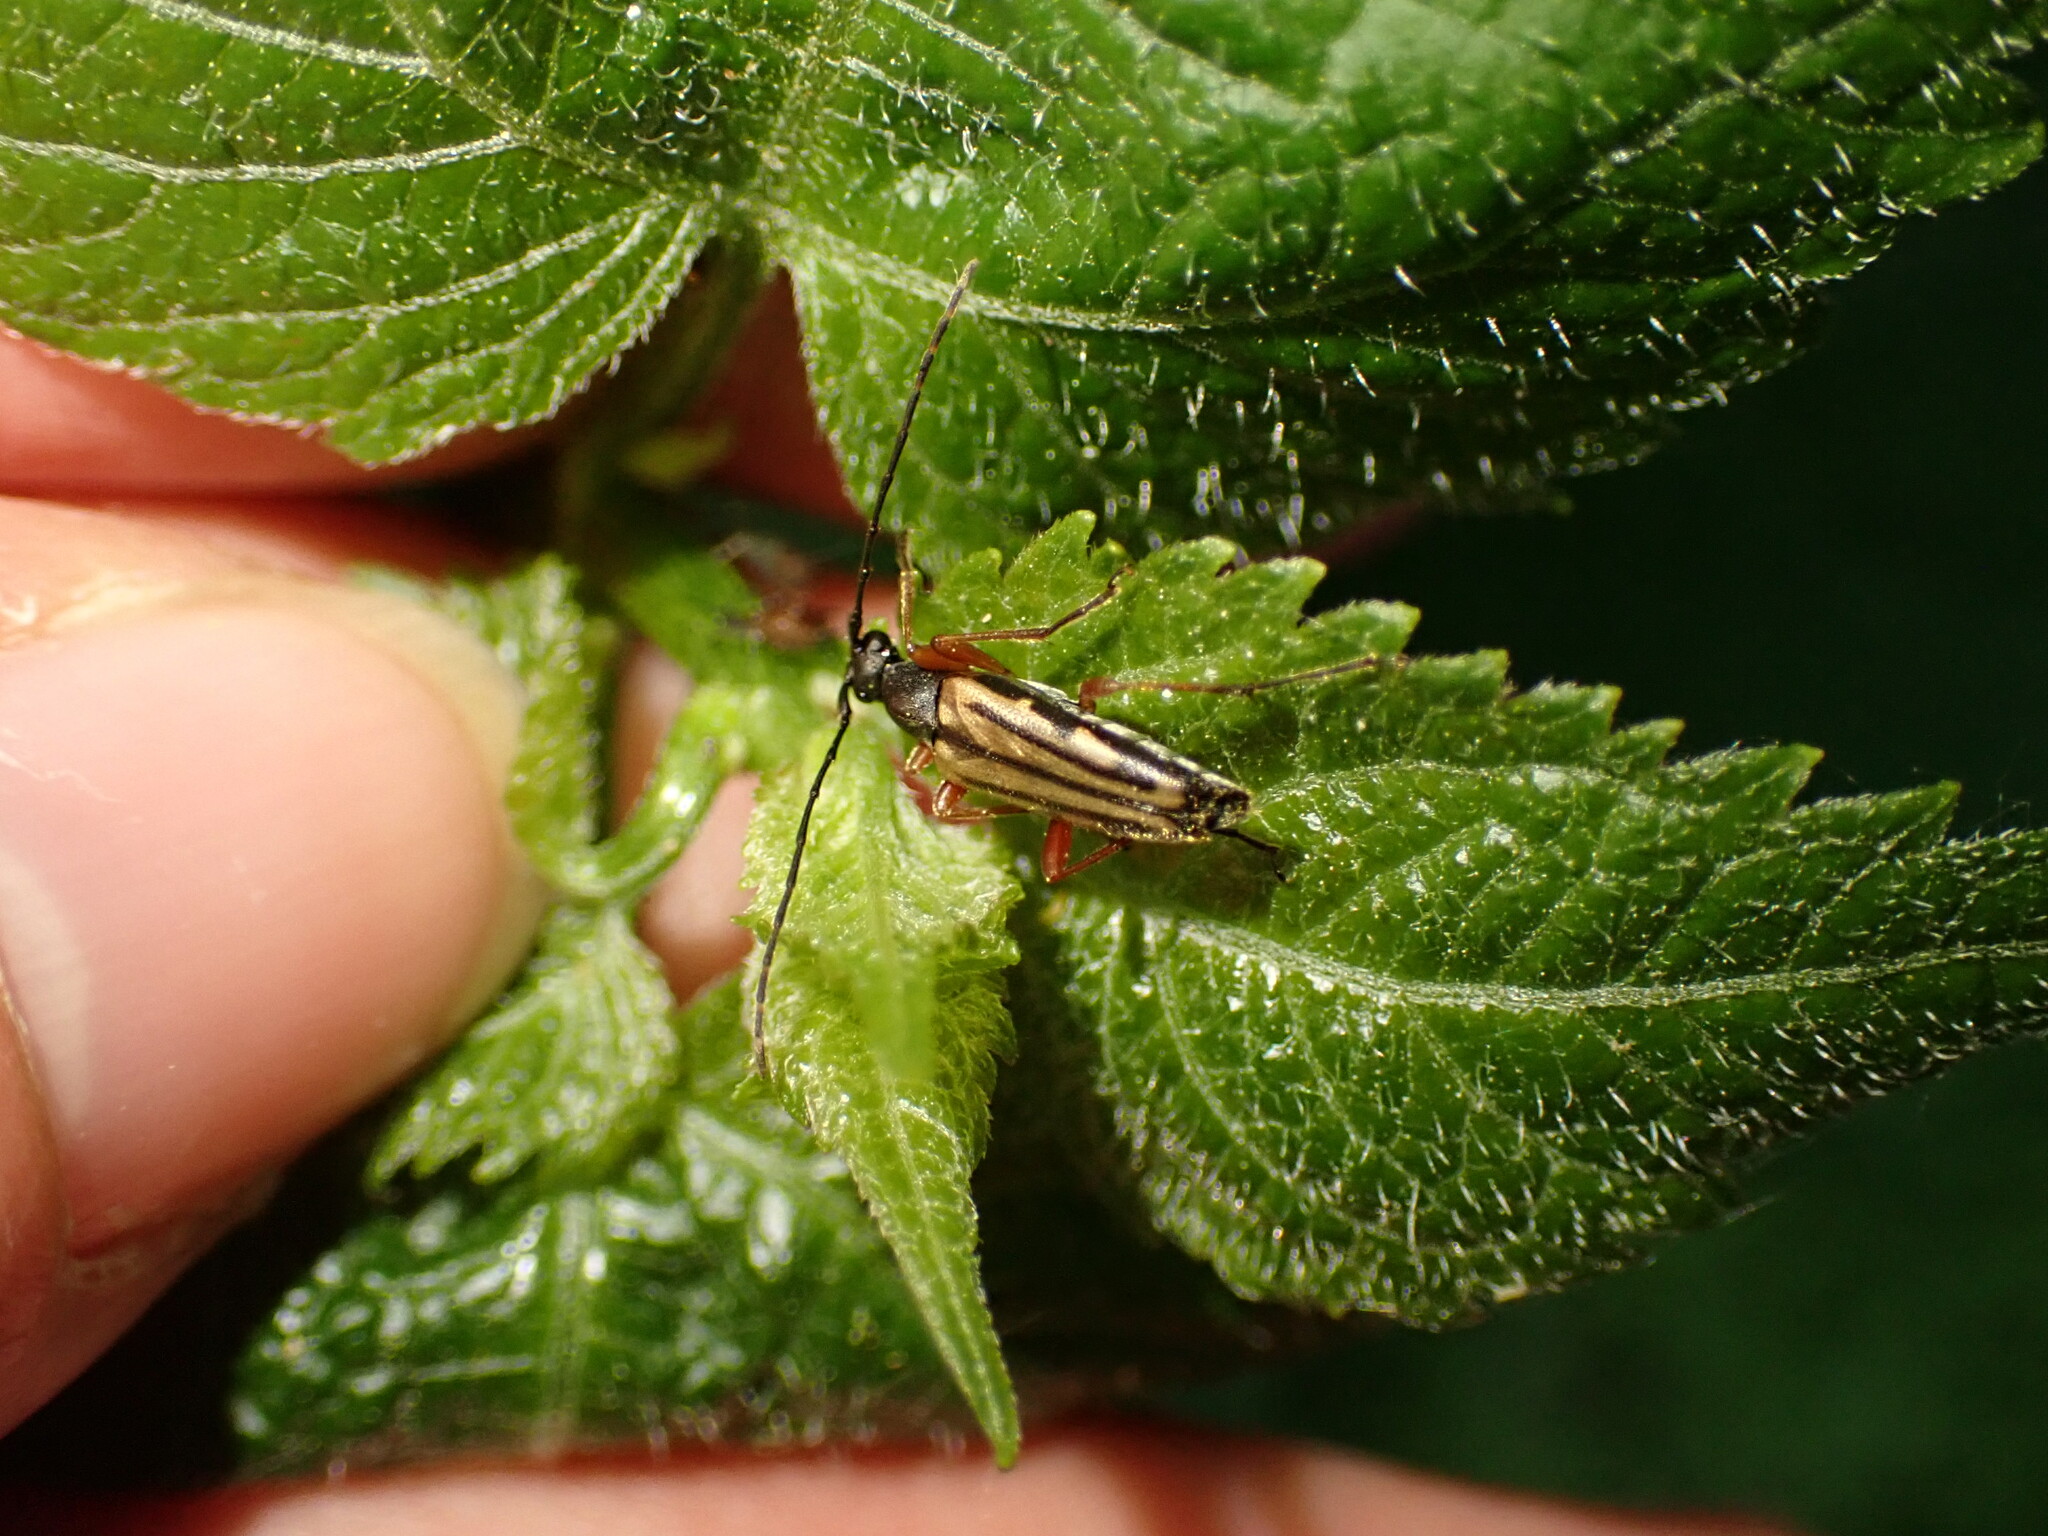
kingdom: Animalia
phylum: Arthropoda
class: Insecta
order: Coleoptera
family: Cerambycidae
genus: Analeptura
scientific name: Analeptura lineola
